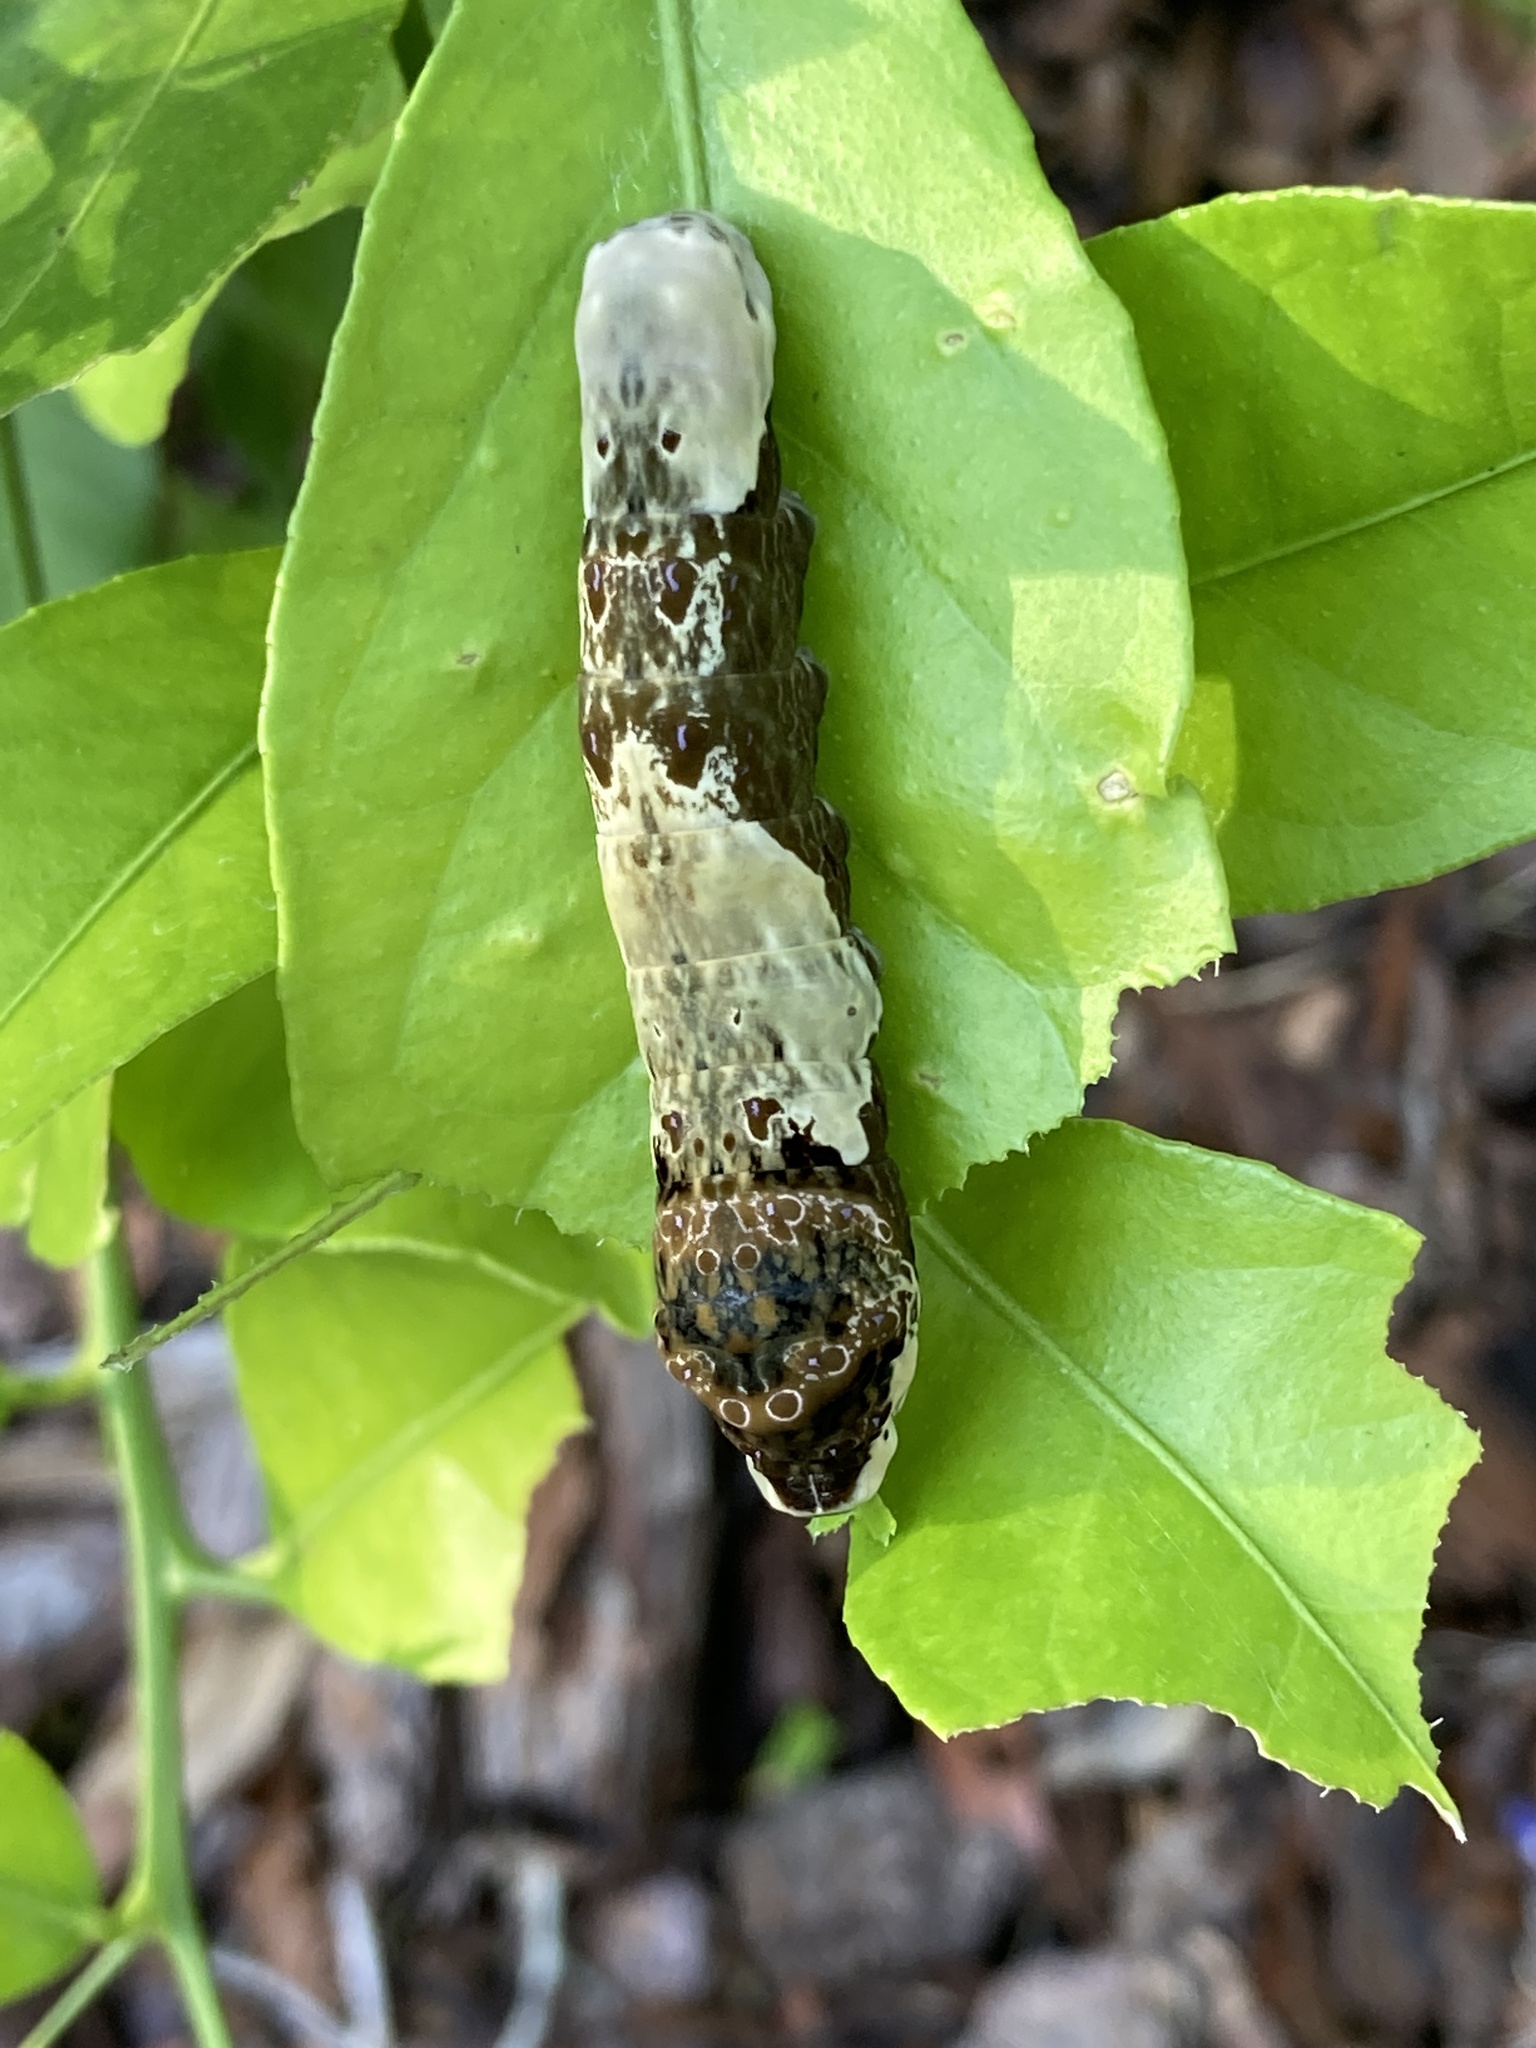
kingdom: Animalia
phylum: Arthropoda
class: Insecta
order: Lepidoptera
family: Papilionidae
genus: Papilio
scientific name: Papilio cresphontes
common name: Giant swallowtail
